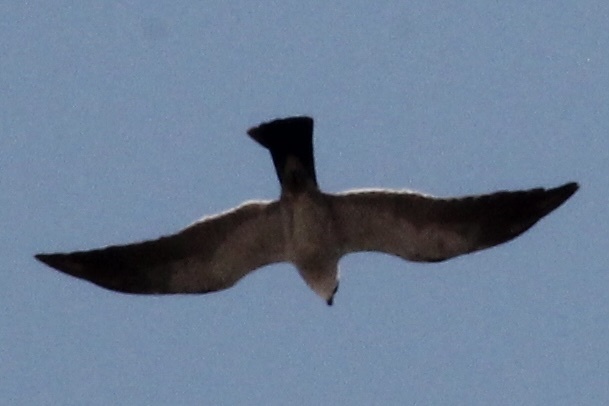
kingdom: Animalia
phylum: Chordata
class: Aves
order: Accipitriformes
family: Accipitridae
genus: Ictinia
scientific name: Ictinia mississippiensis
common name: Mississippi kite
